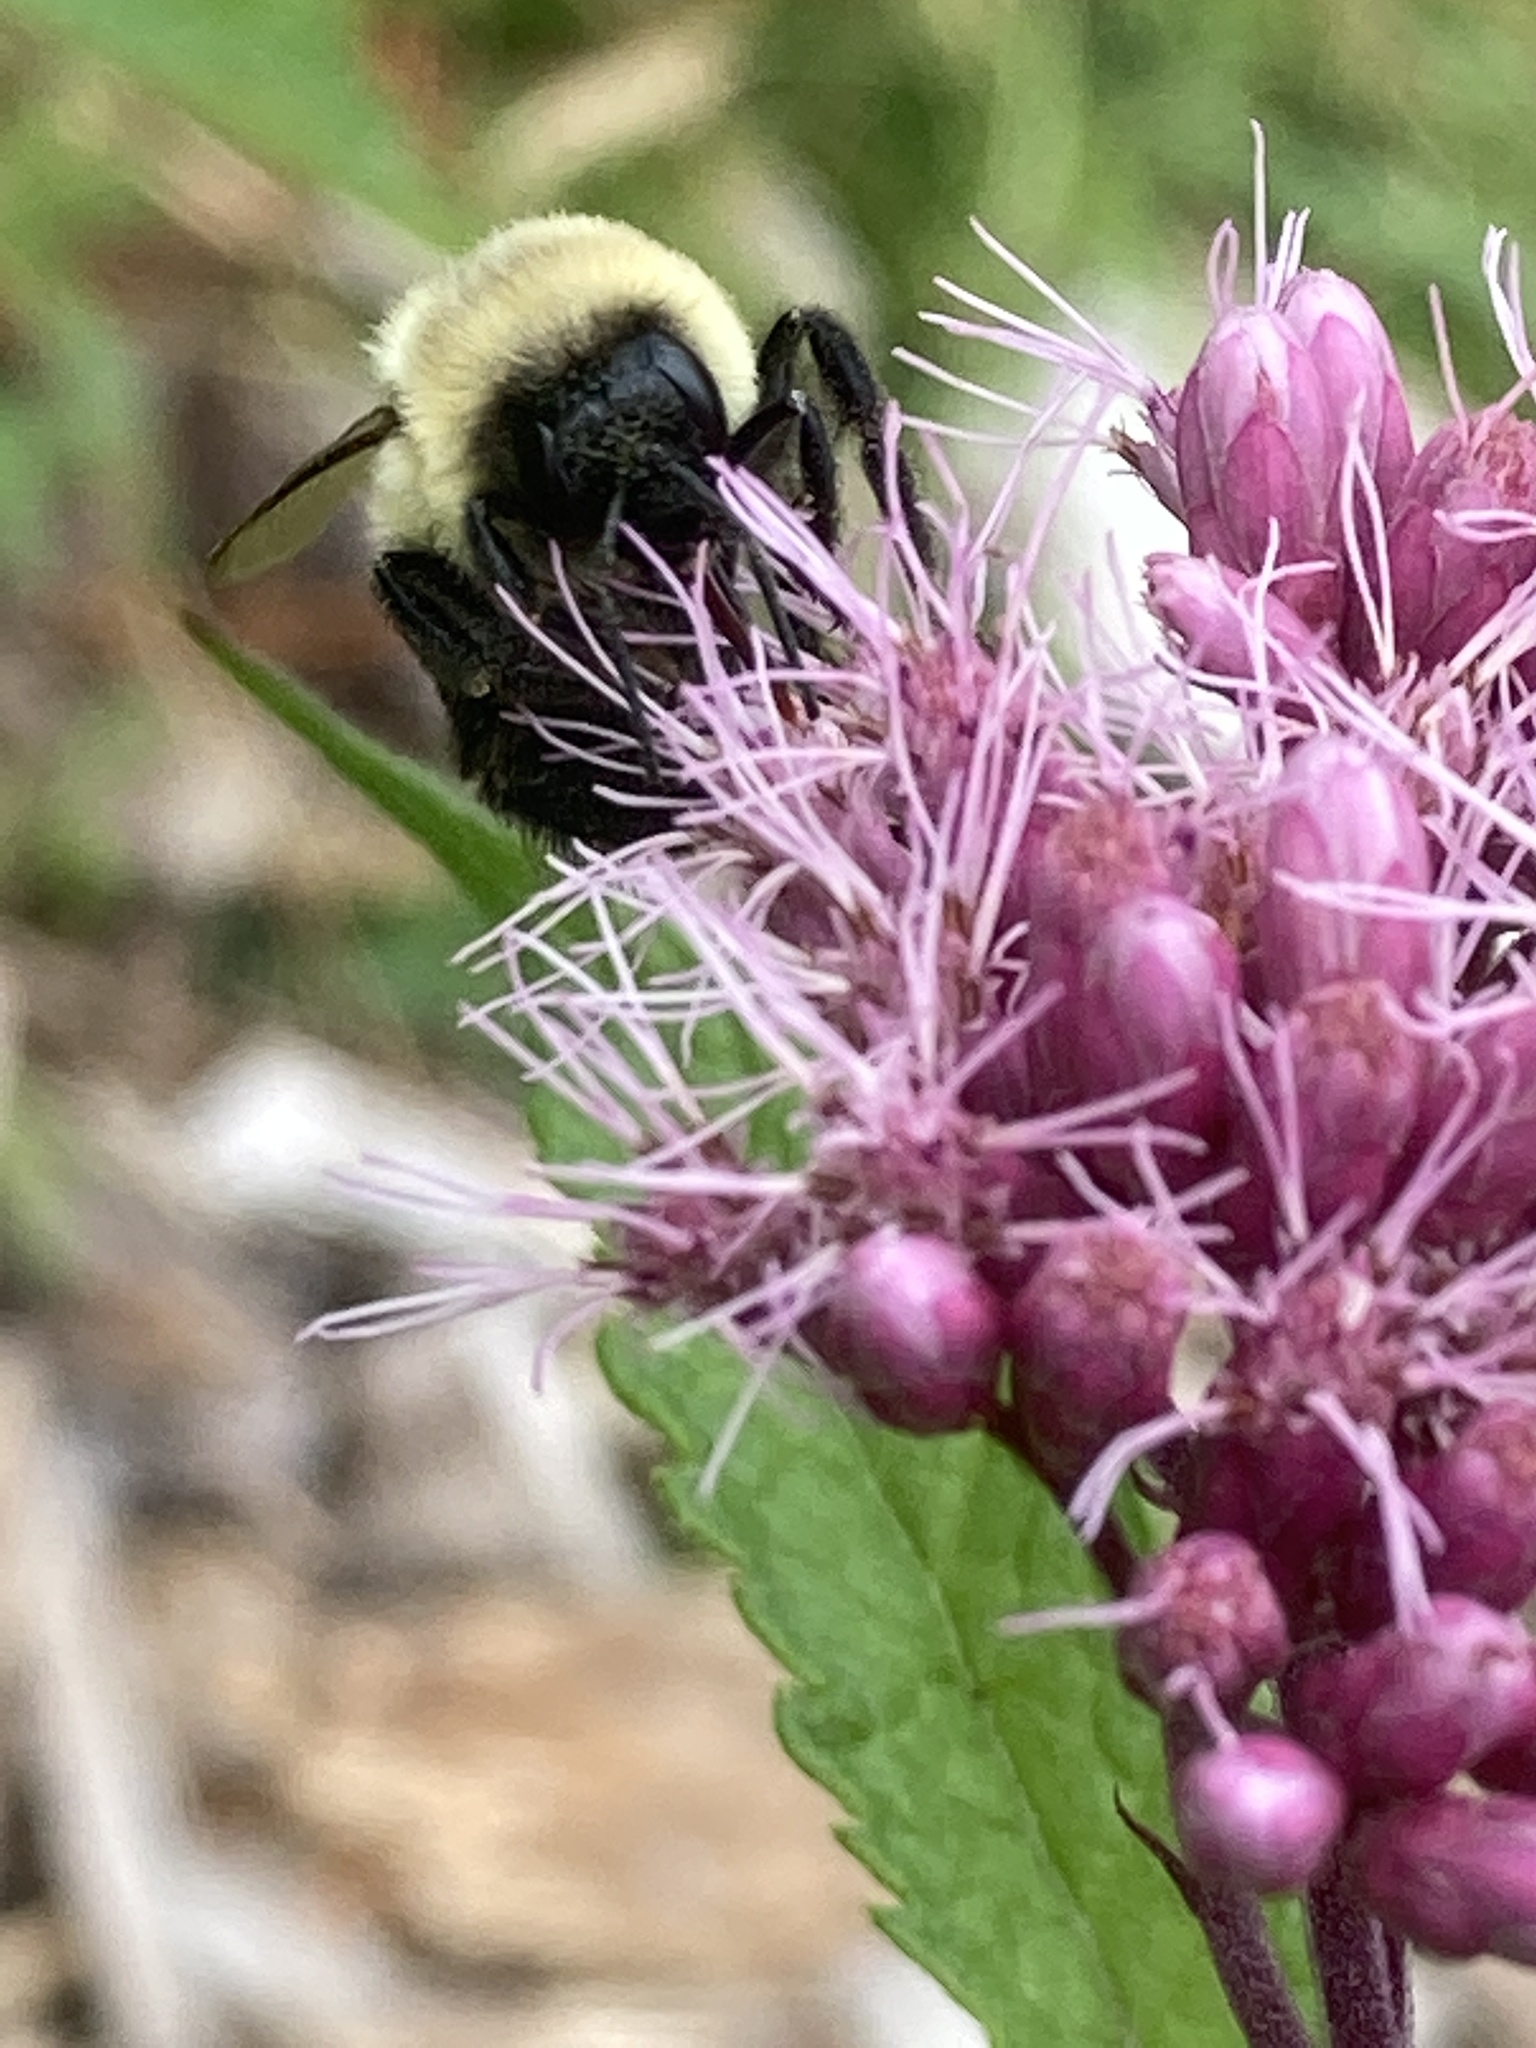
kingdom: Animalia
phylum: Arthropoda
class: Insecta
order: Hymenoptera
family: Apidae
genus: Bombus
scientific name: Bombus impatiens
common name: Common eastern bumble bee
